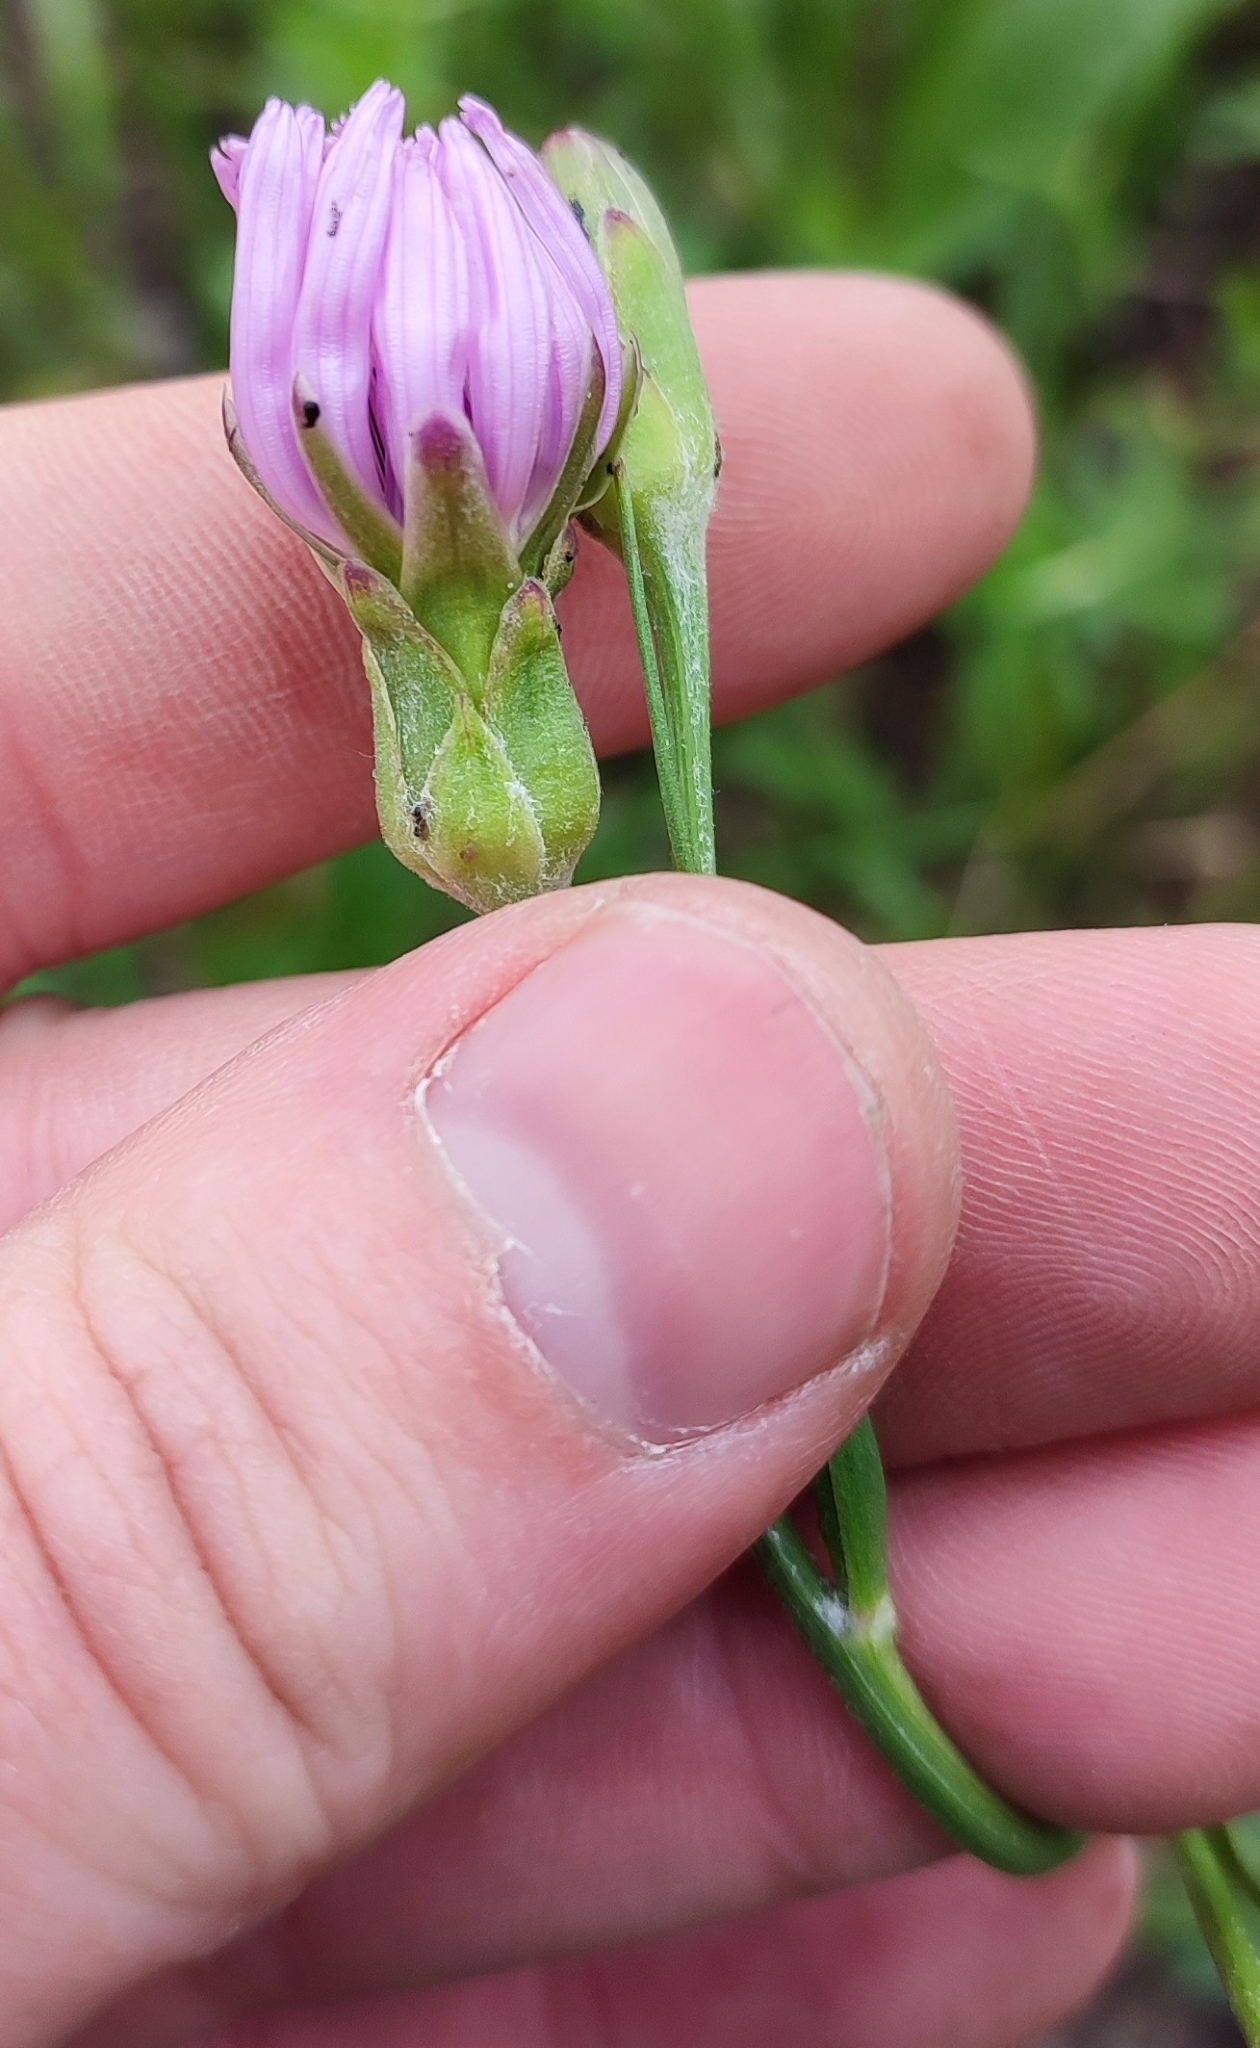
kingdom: Plantae
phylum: Tracheophyta
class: Magnoliopsida
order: Asterales
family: Asteraceae
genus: Scorzonera
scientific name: Scorzonera purpurea
